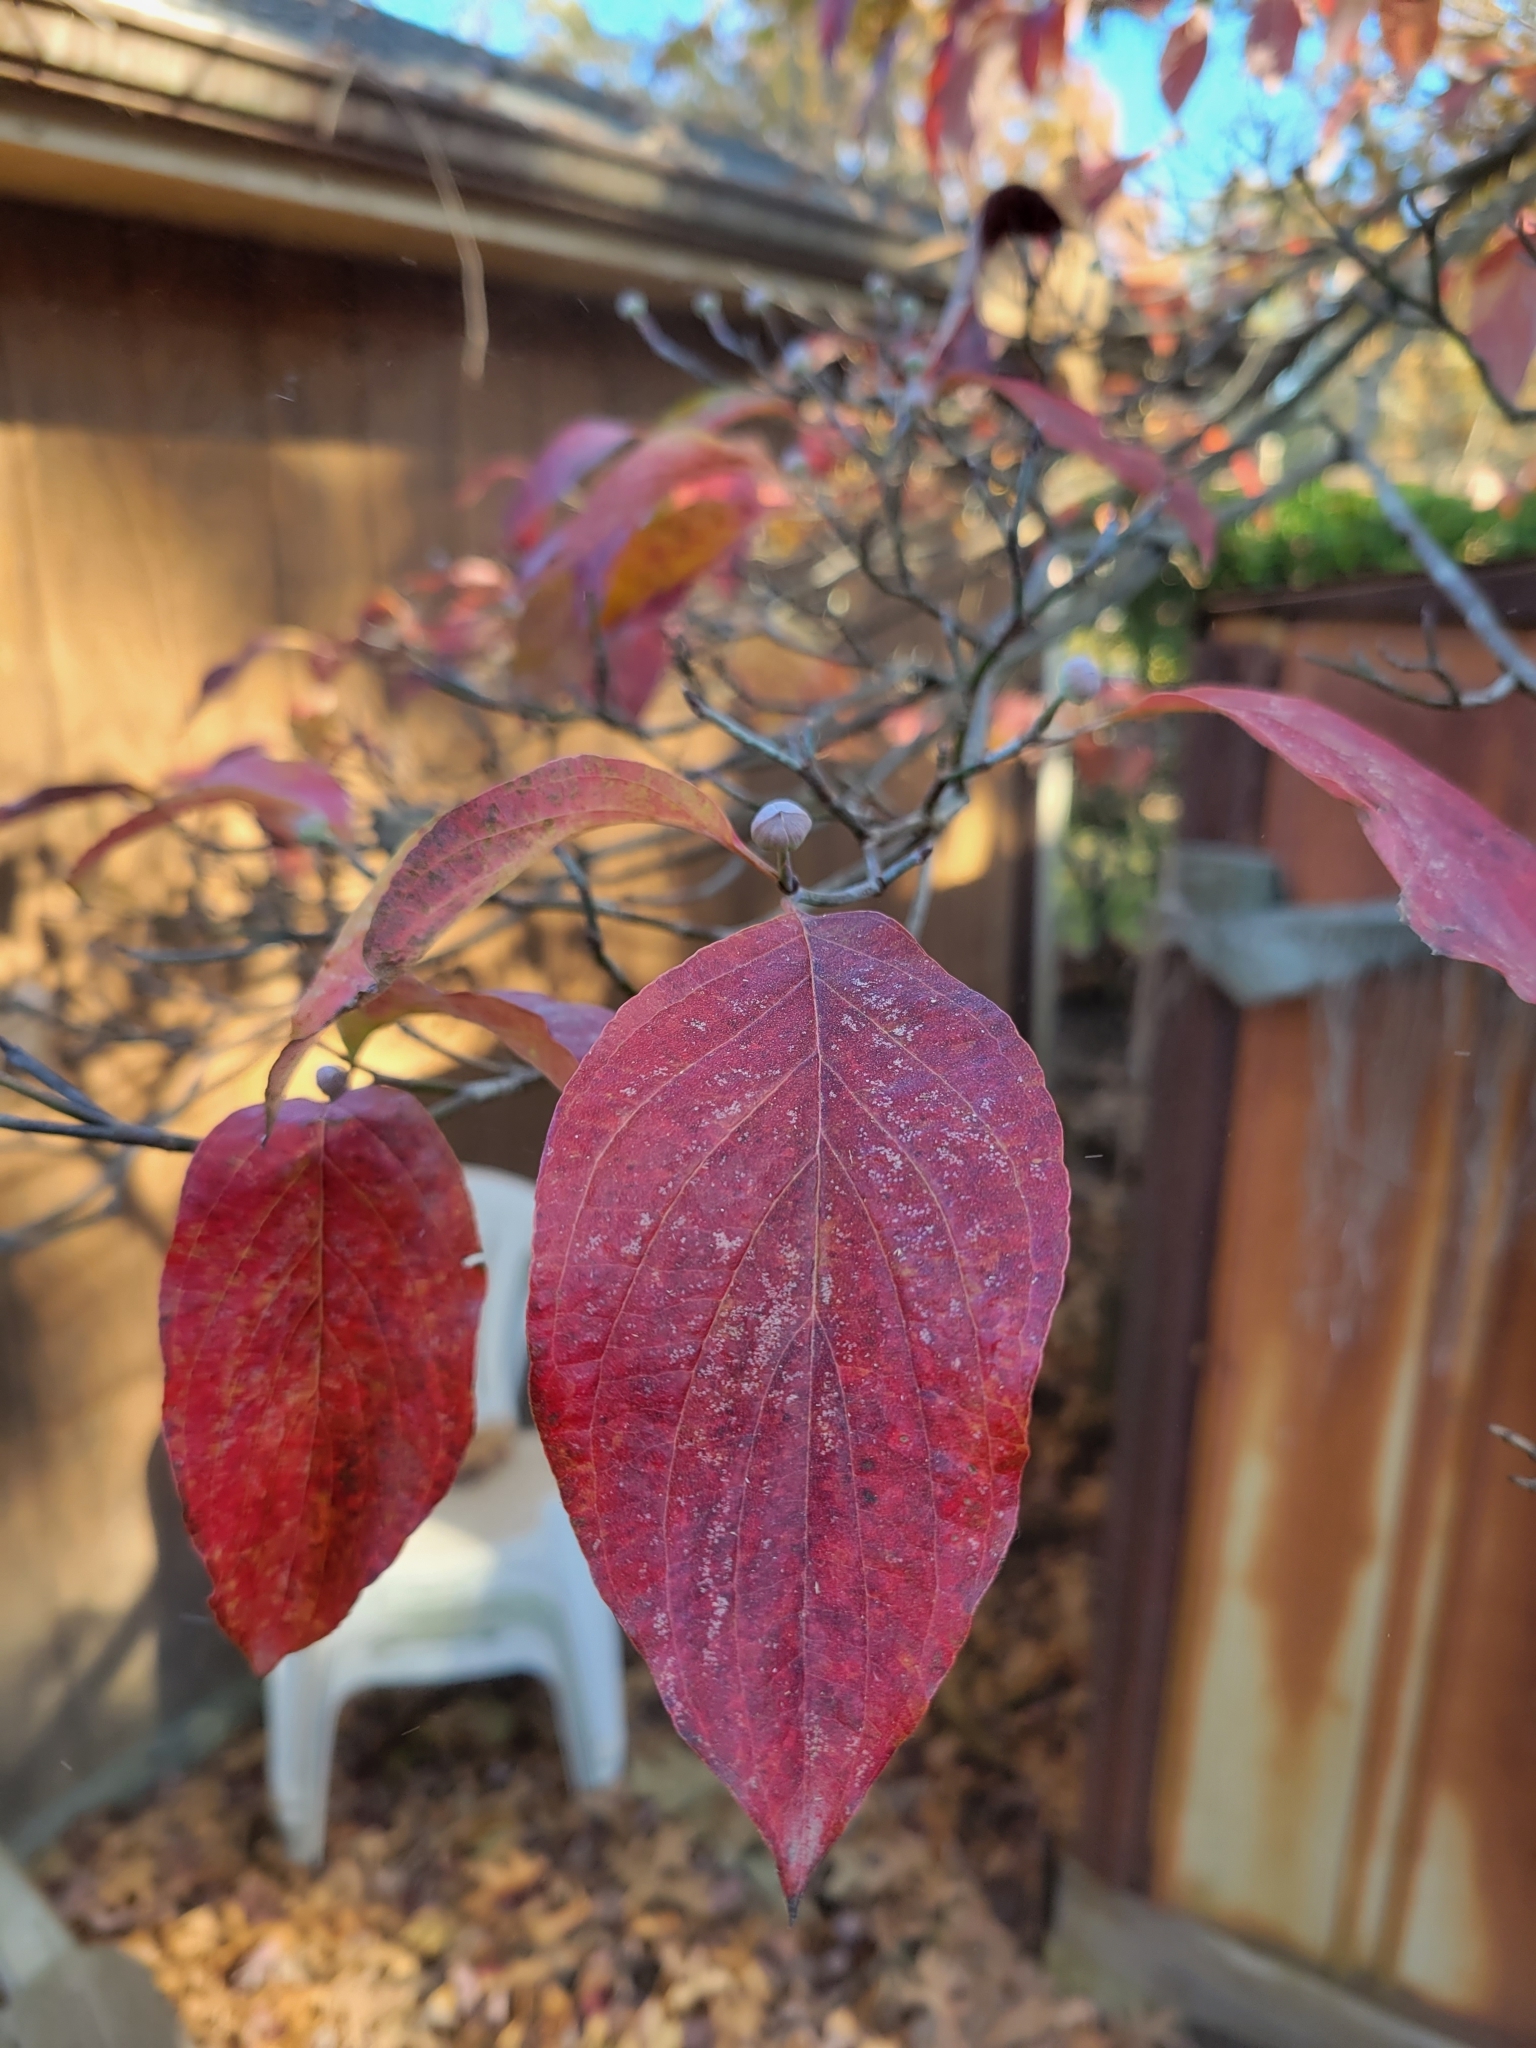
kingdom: Plantae
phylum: Tracheophyta
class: Magnoliopsida
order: Cornales
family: Cornaceae
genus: Cornus
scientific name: Cornus florida
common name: Flowering dogwood
